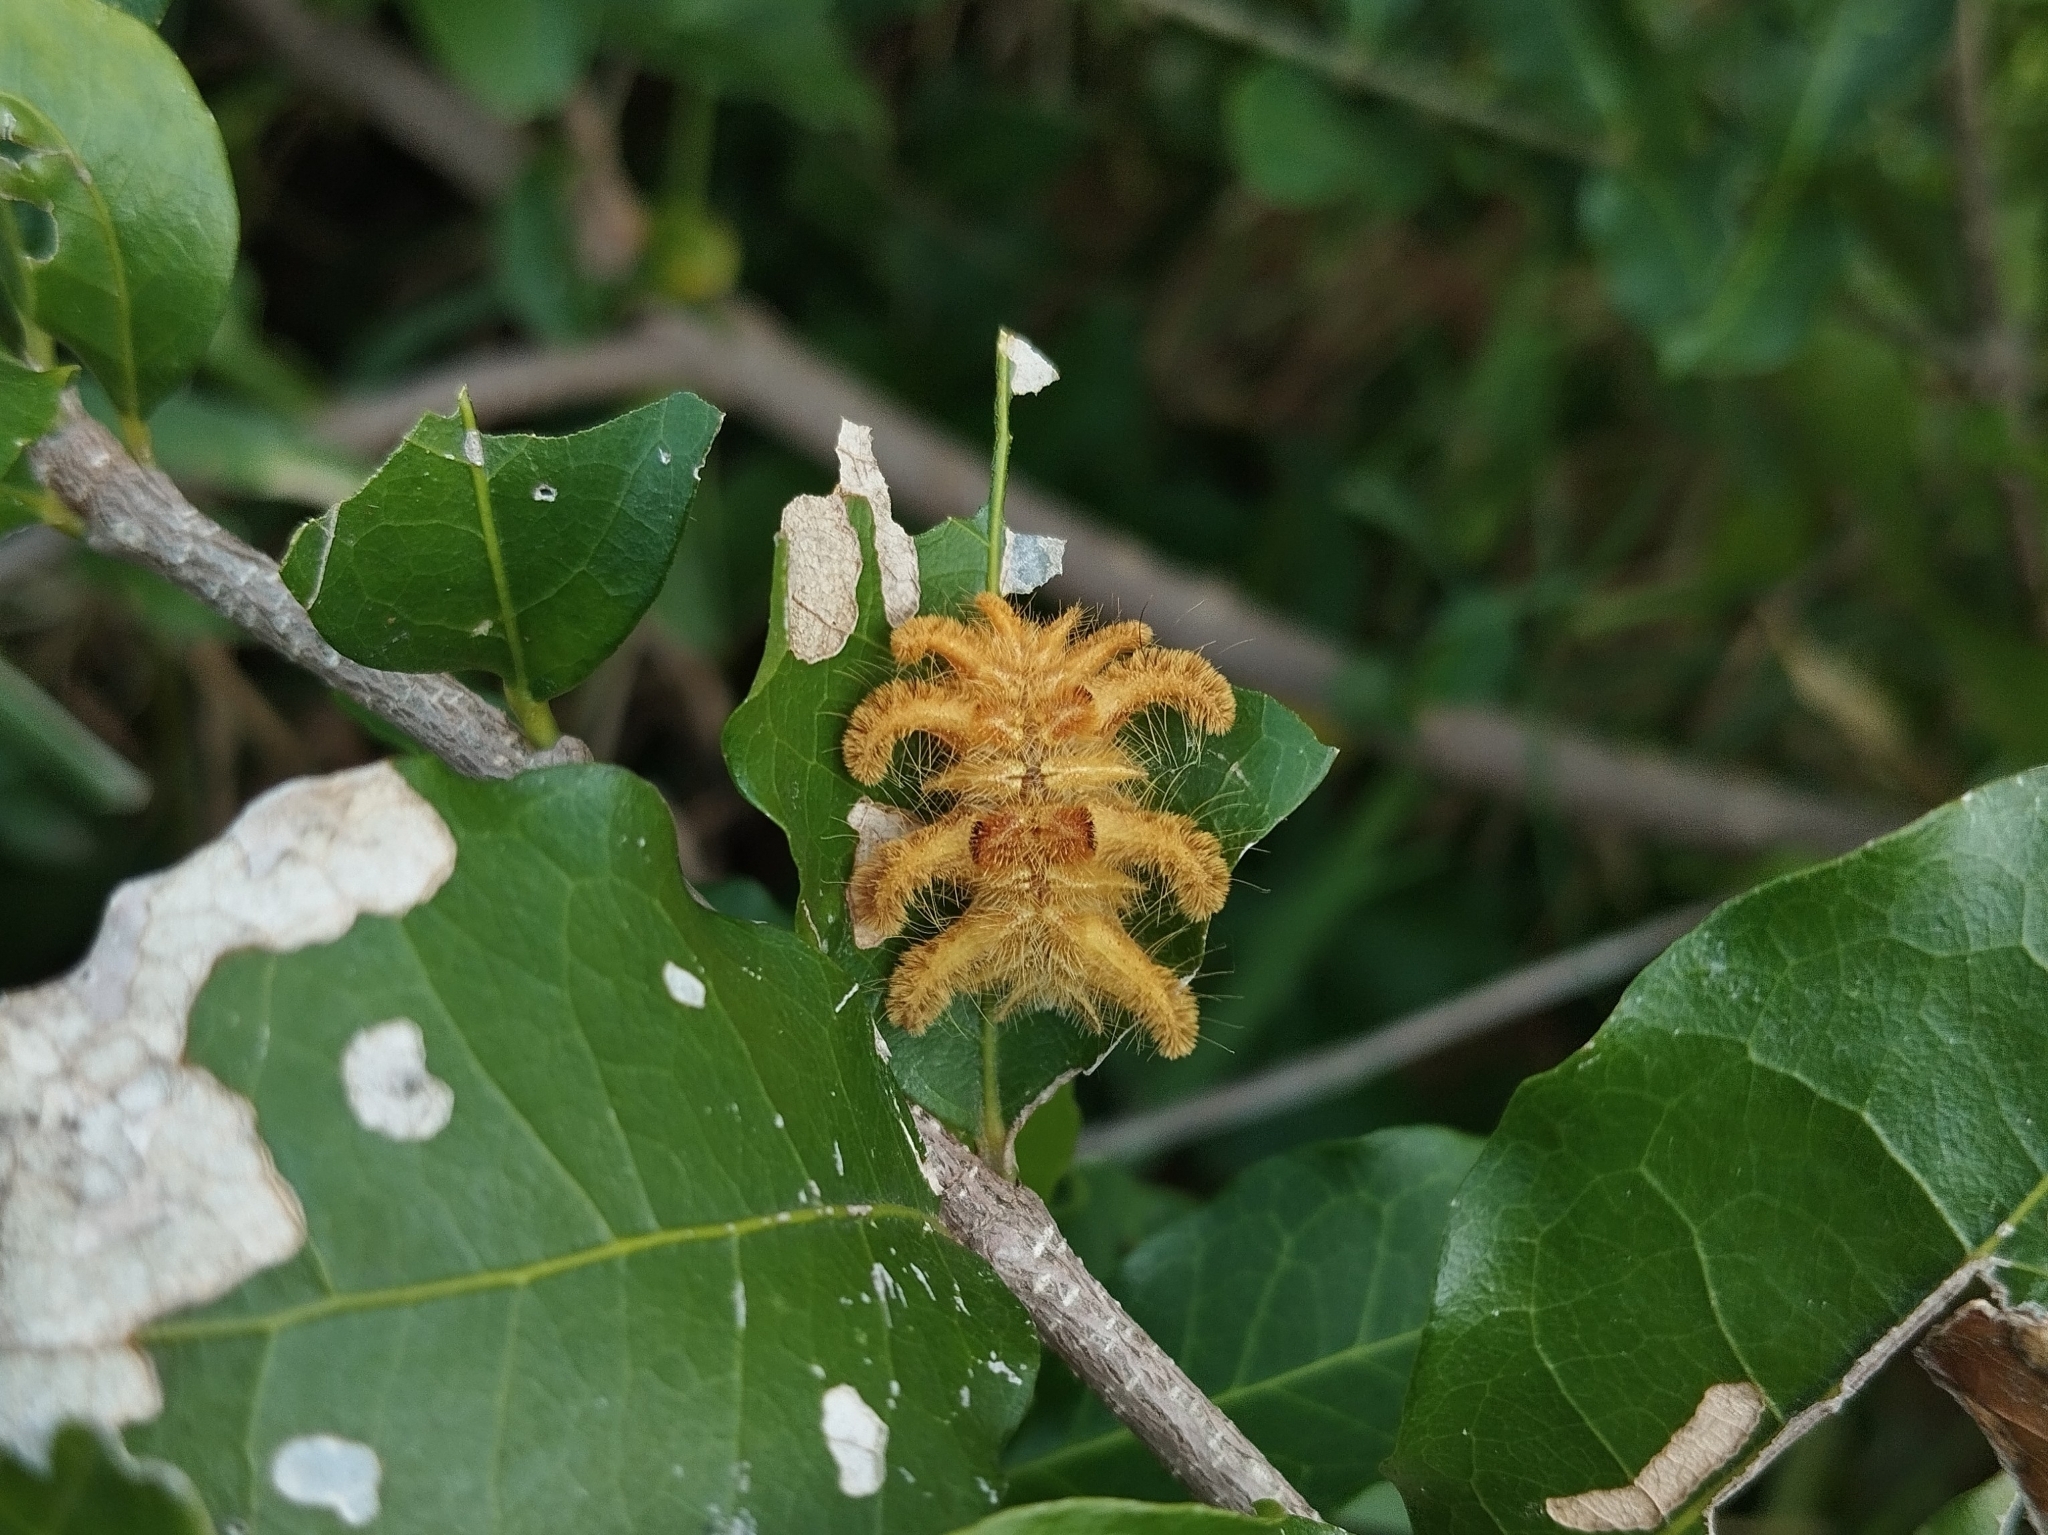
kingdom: Animalia
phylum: Arthropoda
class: Insecta
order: Lepidoptera
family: Limacodidae
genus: Phobetron
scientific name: Phobetron hipparchia
